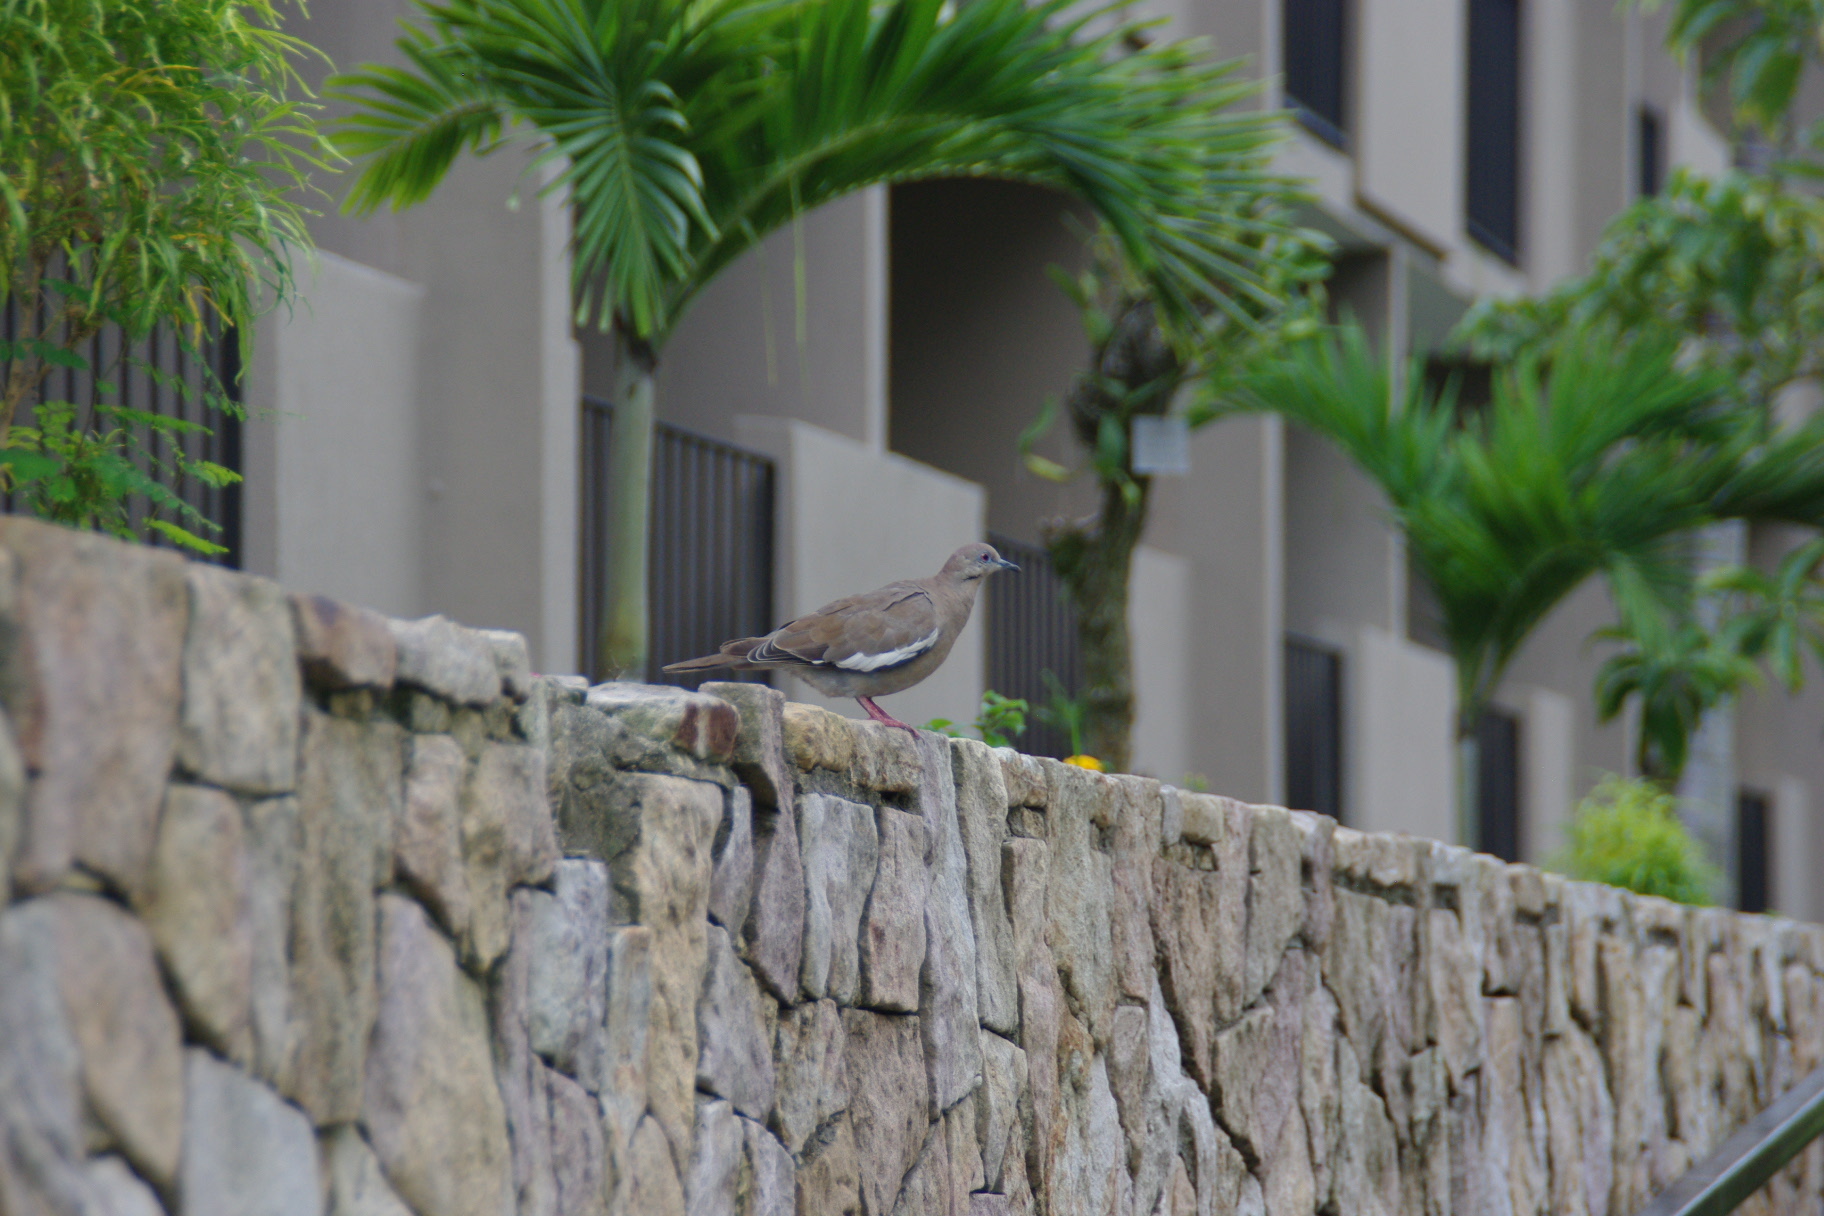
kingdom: Animalia
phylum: Chordata
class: Aves
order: Columbiformes
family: Columbidae
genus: Zenaida
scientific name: Zenaida asiatica
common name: White-winged dove
